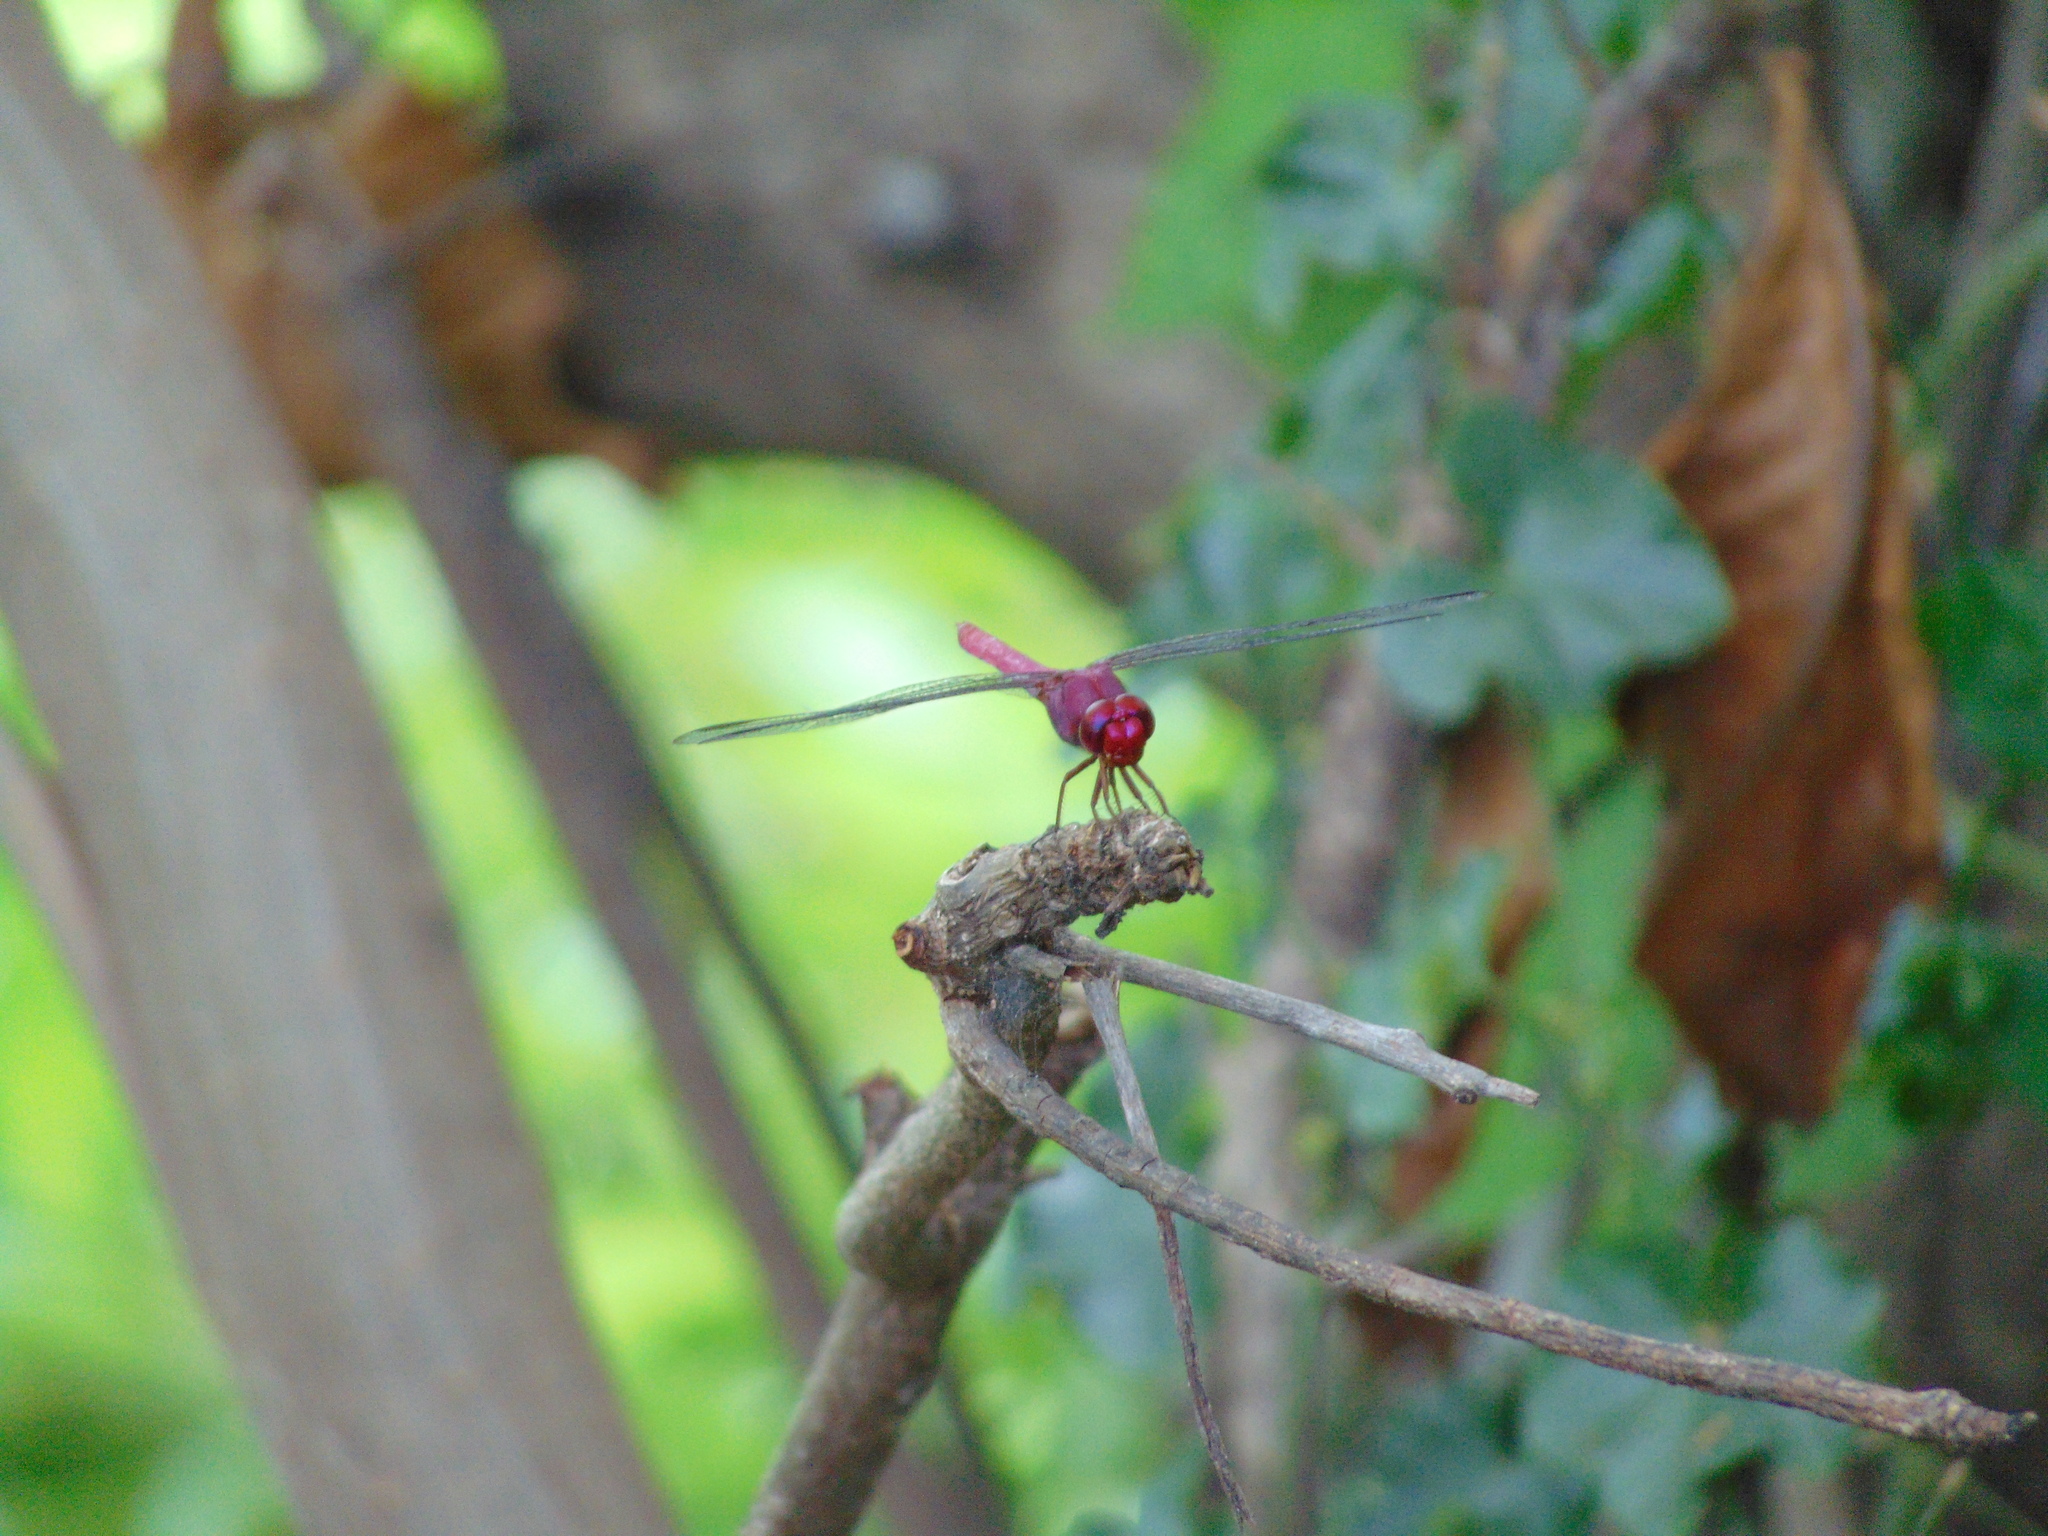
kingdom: Animalia
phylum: Arthropoda
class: Insecta
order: Odonata
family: Libellulidae
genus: Orthemis
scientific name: Orthemis discolor
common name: Carmine skimmer
